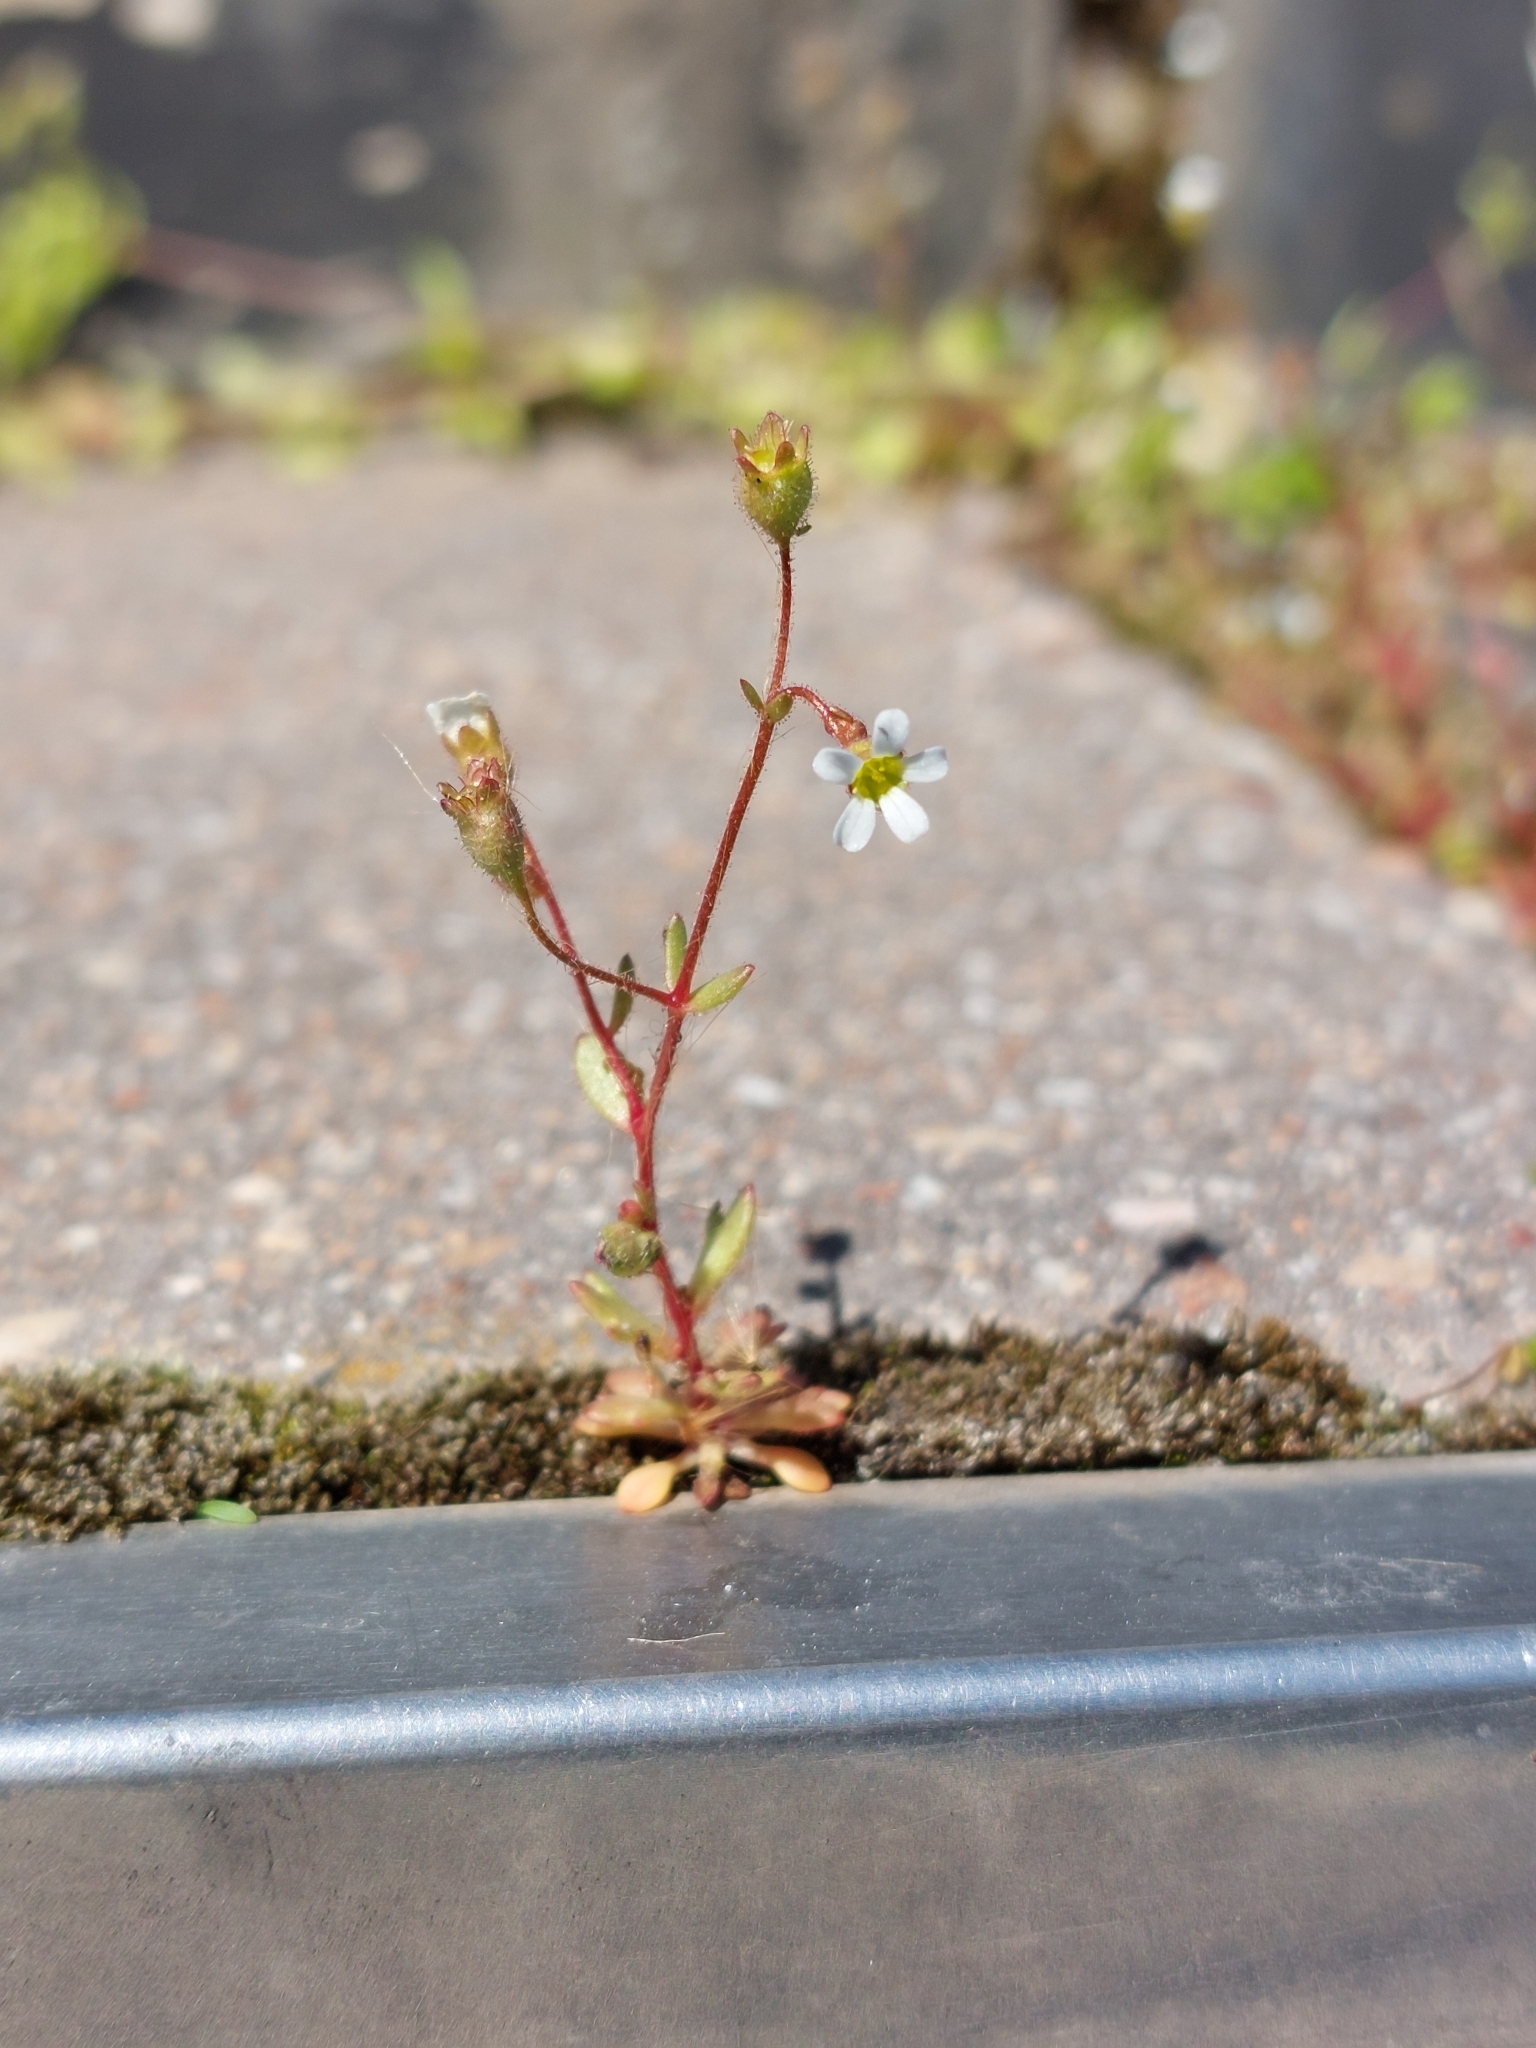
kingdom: Plantae
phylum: Tracheophyta
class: Magnoliopsida
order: Saxifragales
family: Saxifragaceae
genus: Saxifraga
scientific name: Saxifraga tridactylites
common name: Rue-leaved saxifrage
